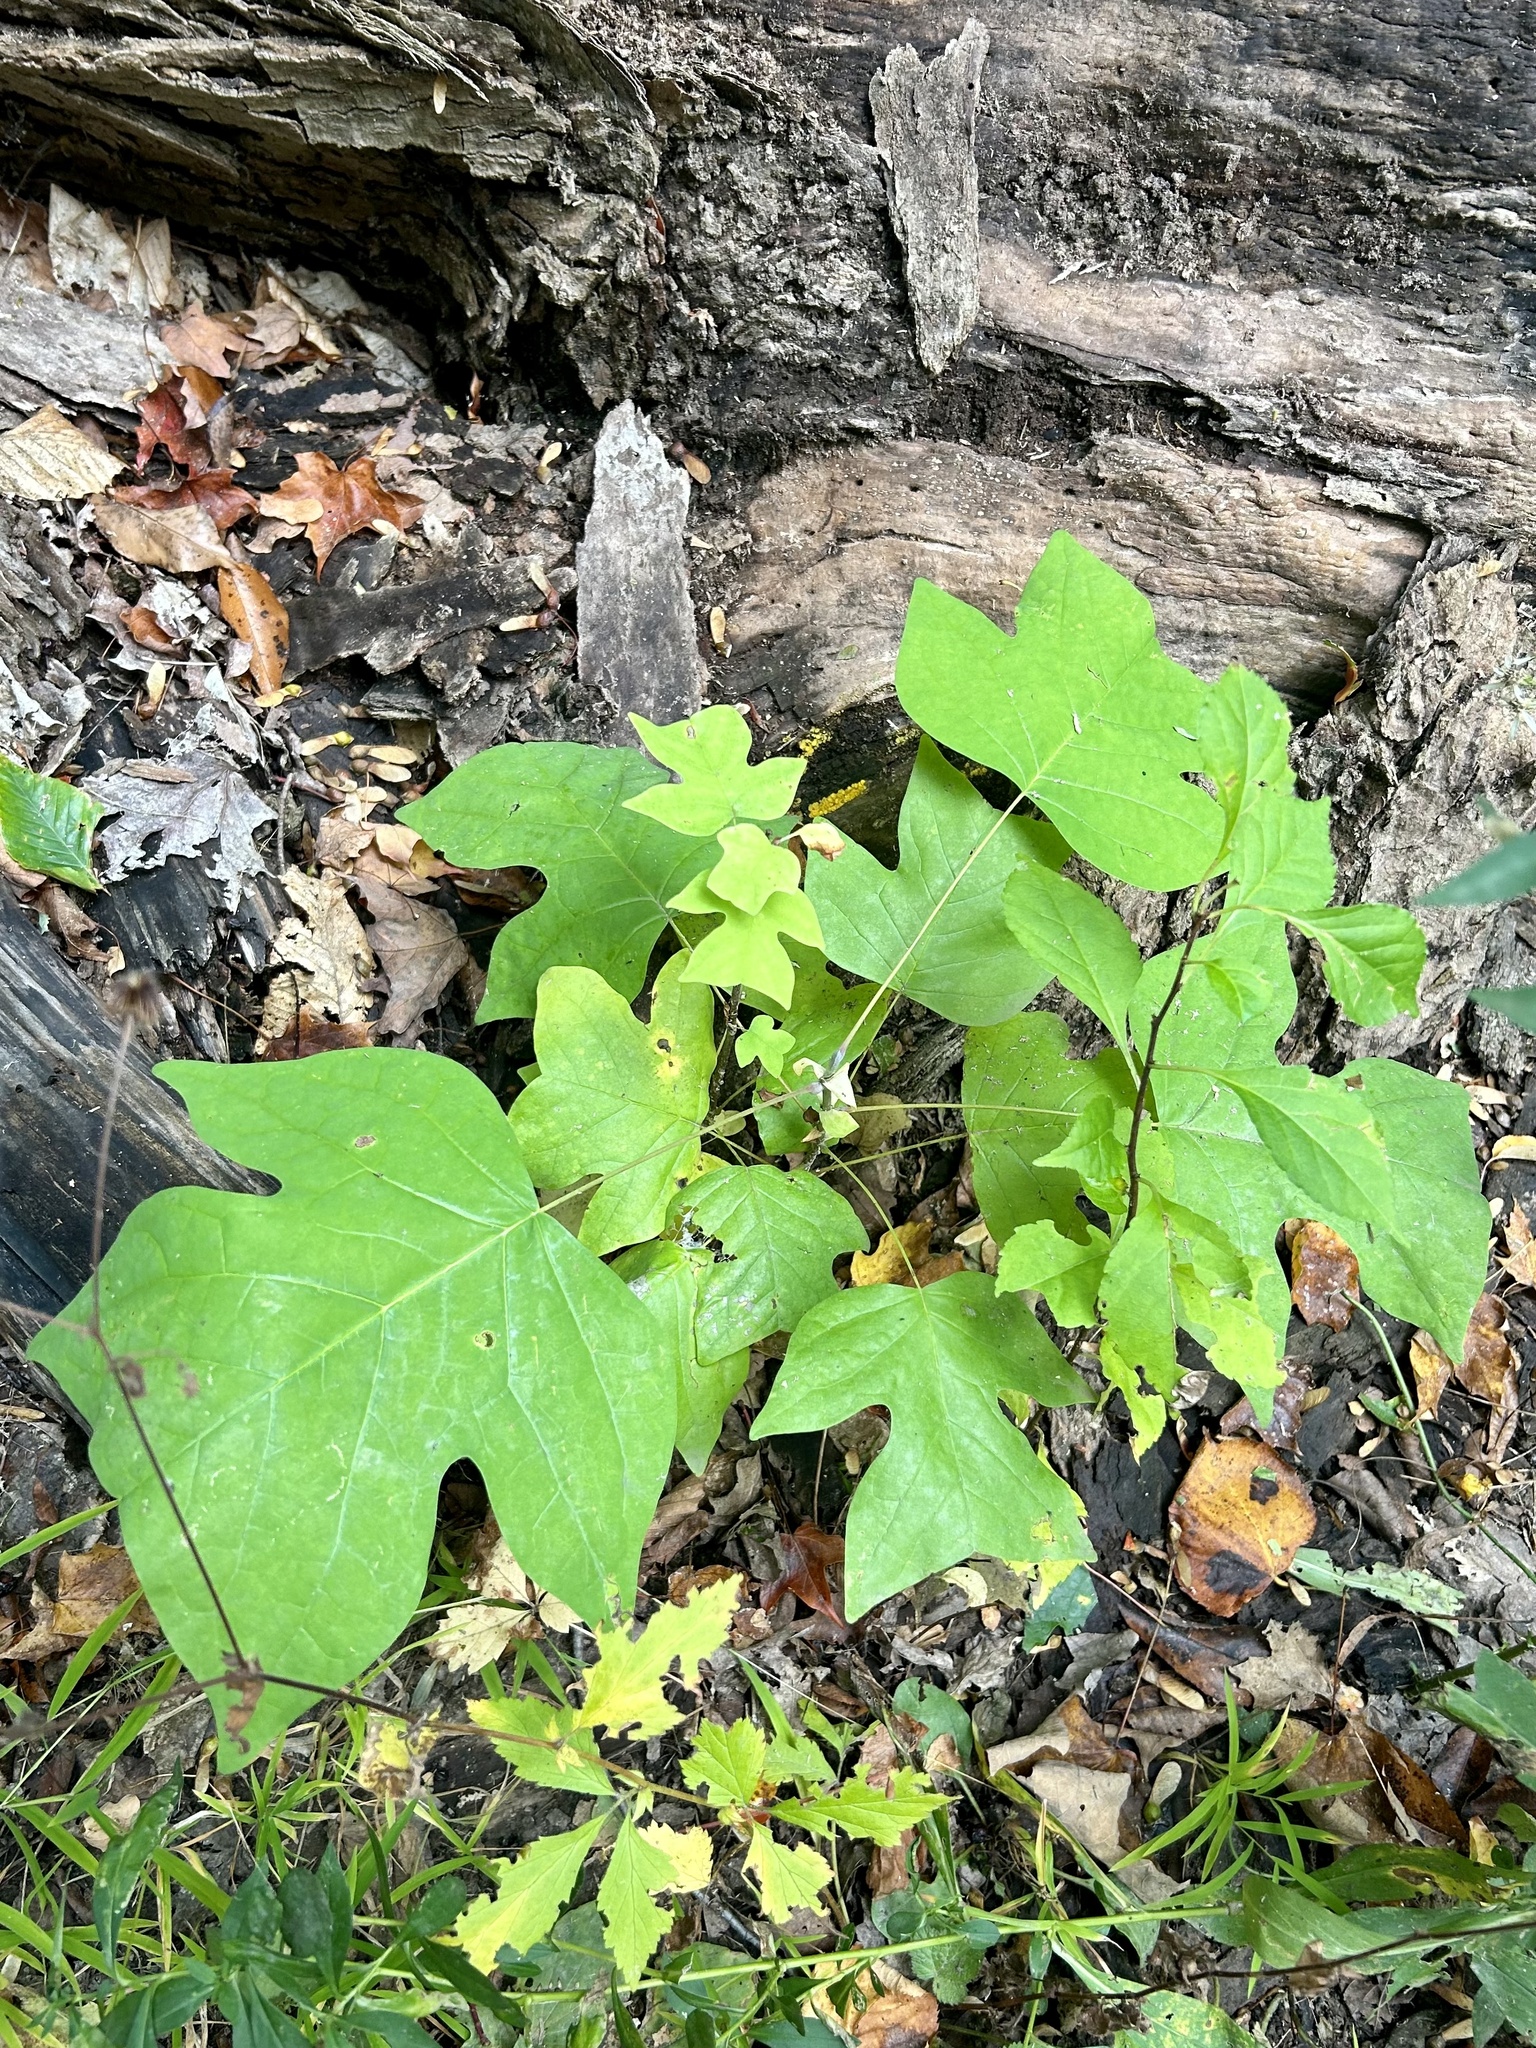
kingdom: Plantae
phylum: Tracheophyta
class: Magnoliopsida
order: Magnoliales
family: Magnoliaceae
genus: Liriodendron
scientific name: Liriodendron tulipifera
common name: Tulip tree
